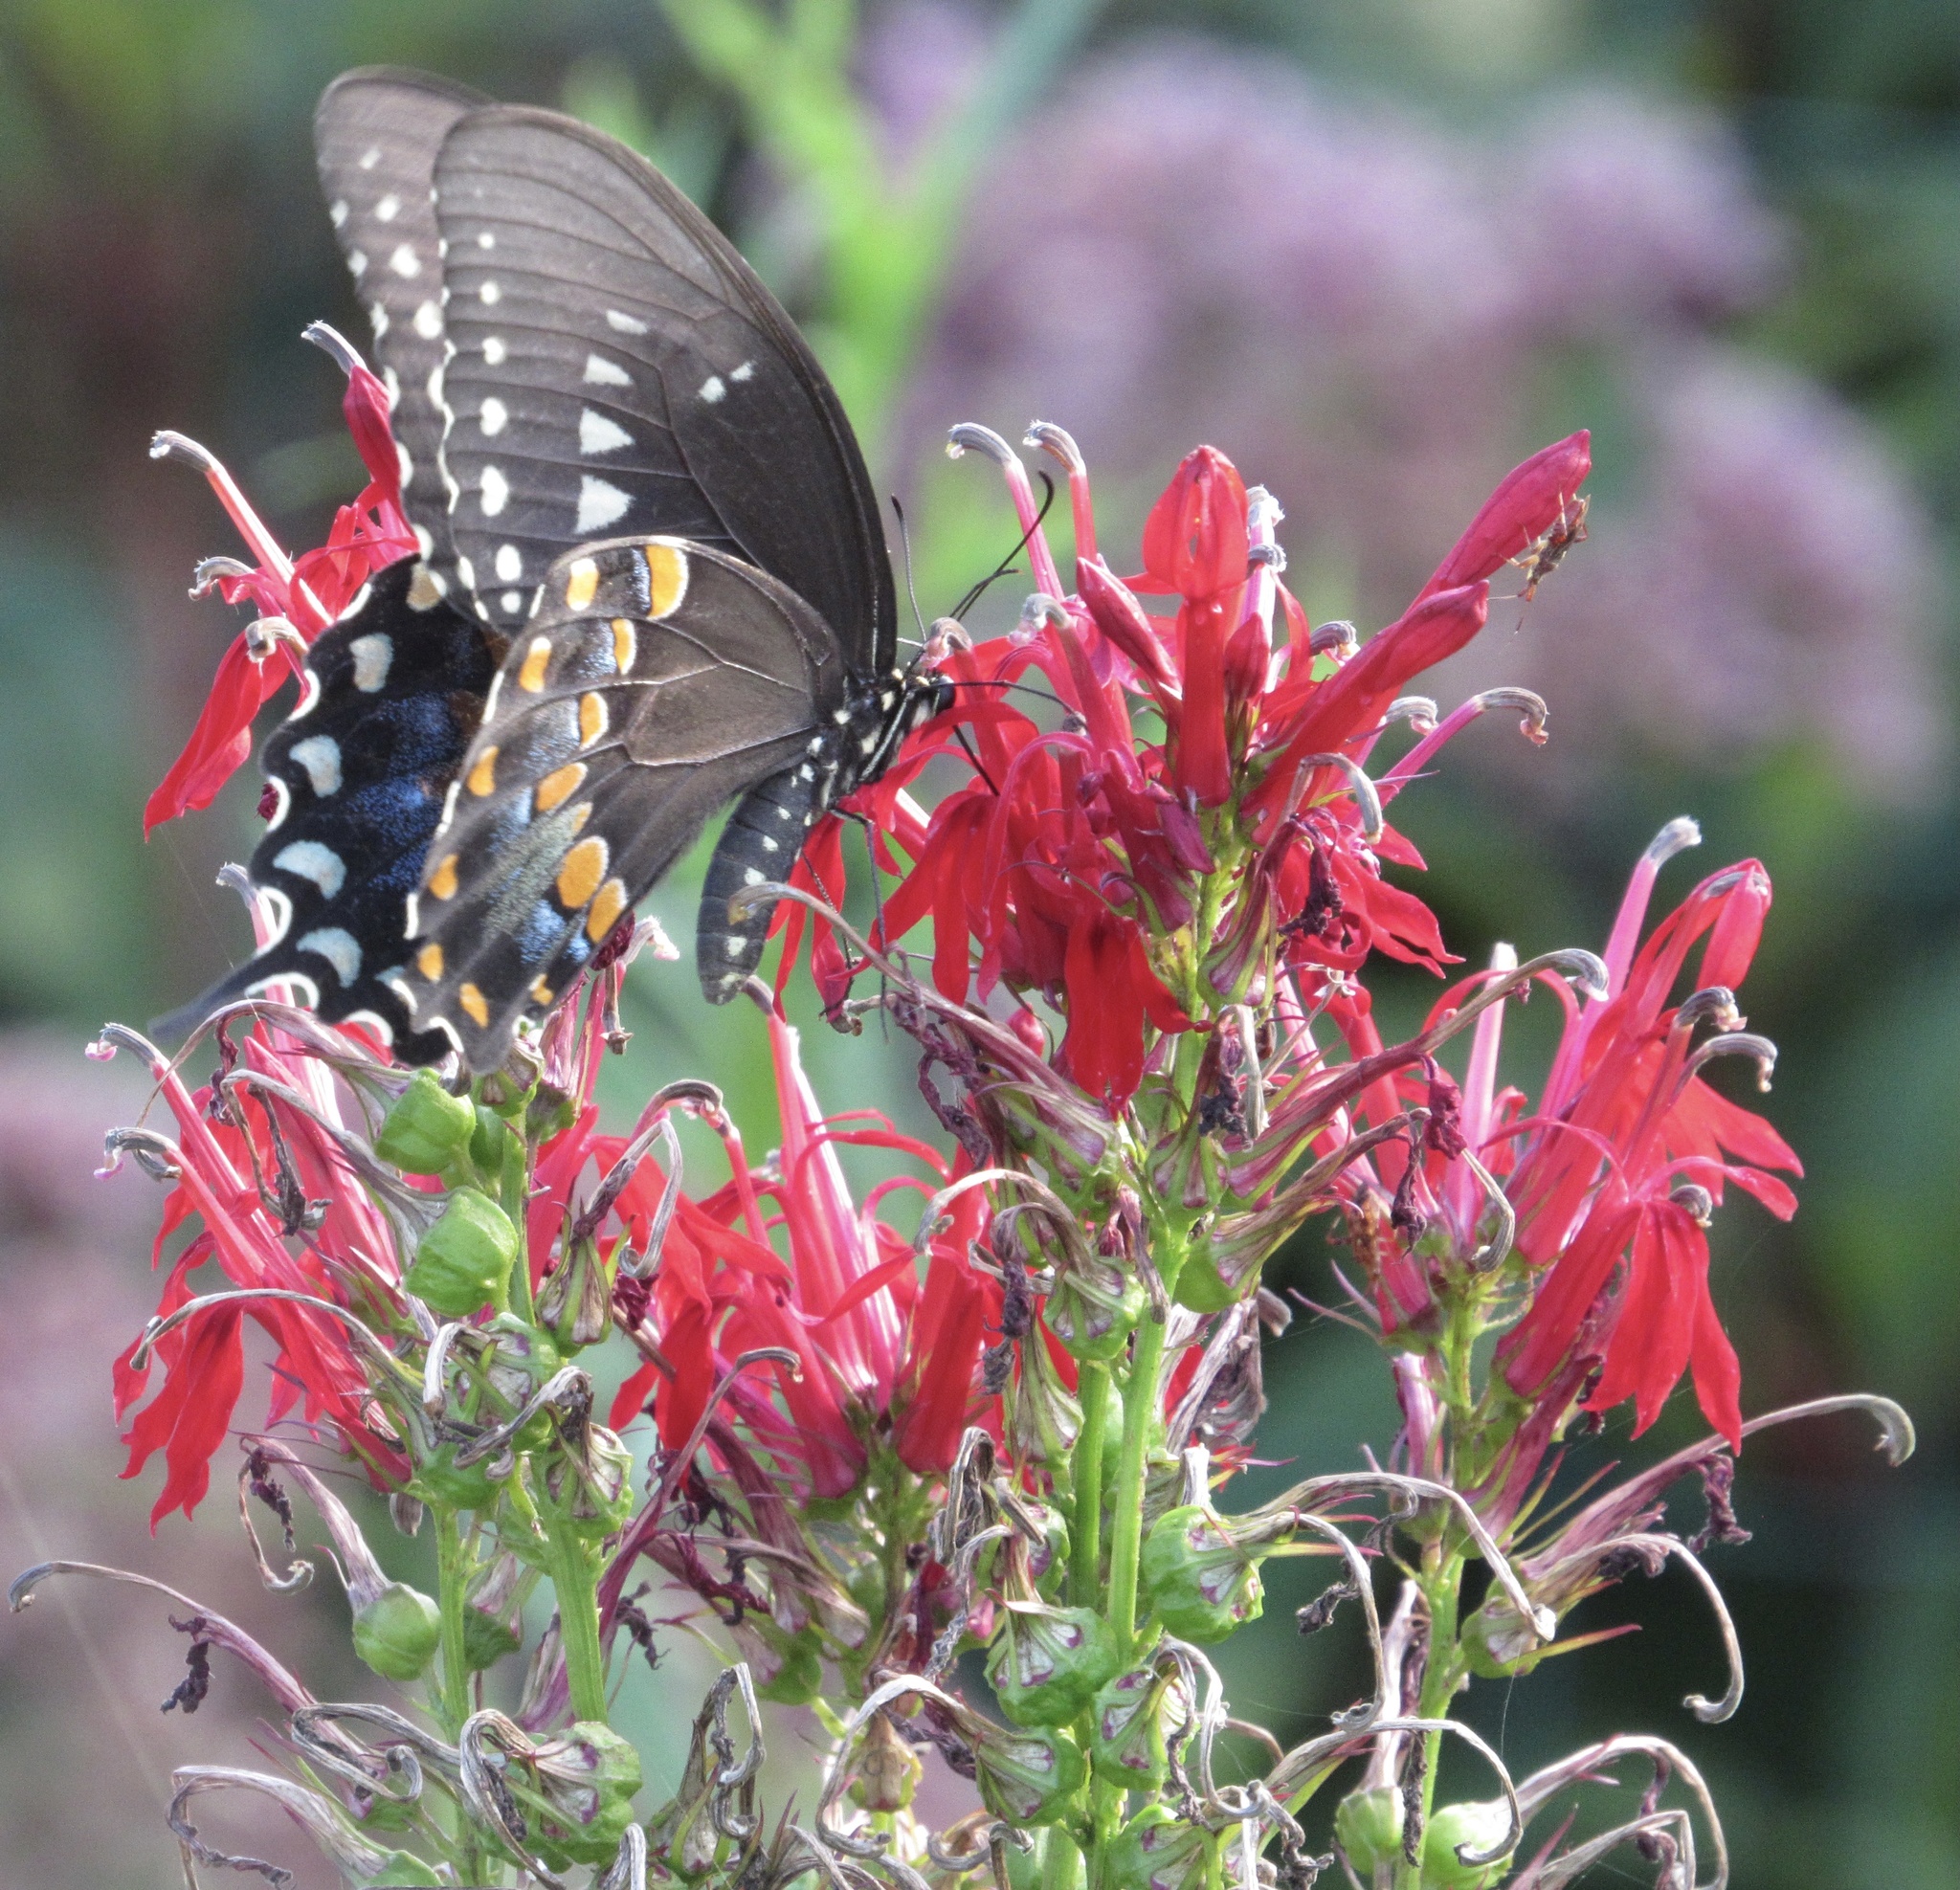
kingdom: Animalia
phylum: Arthropoda
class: Insecta
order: Lepidoptera
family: Papilionidae
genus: Papilio
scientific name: Papilio troilus
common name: Spicebush swallowtail
